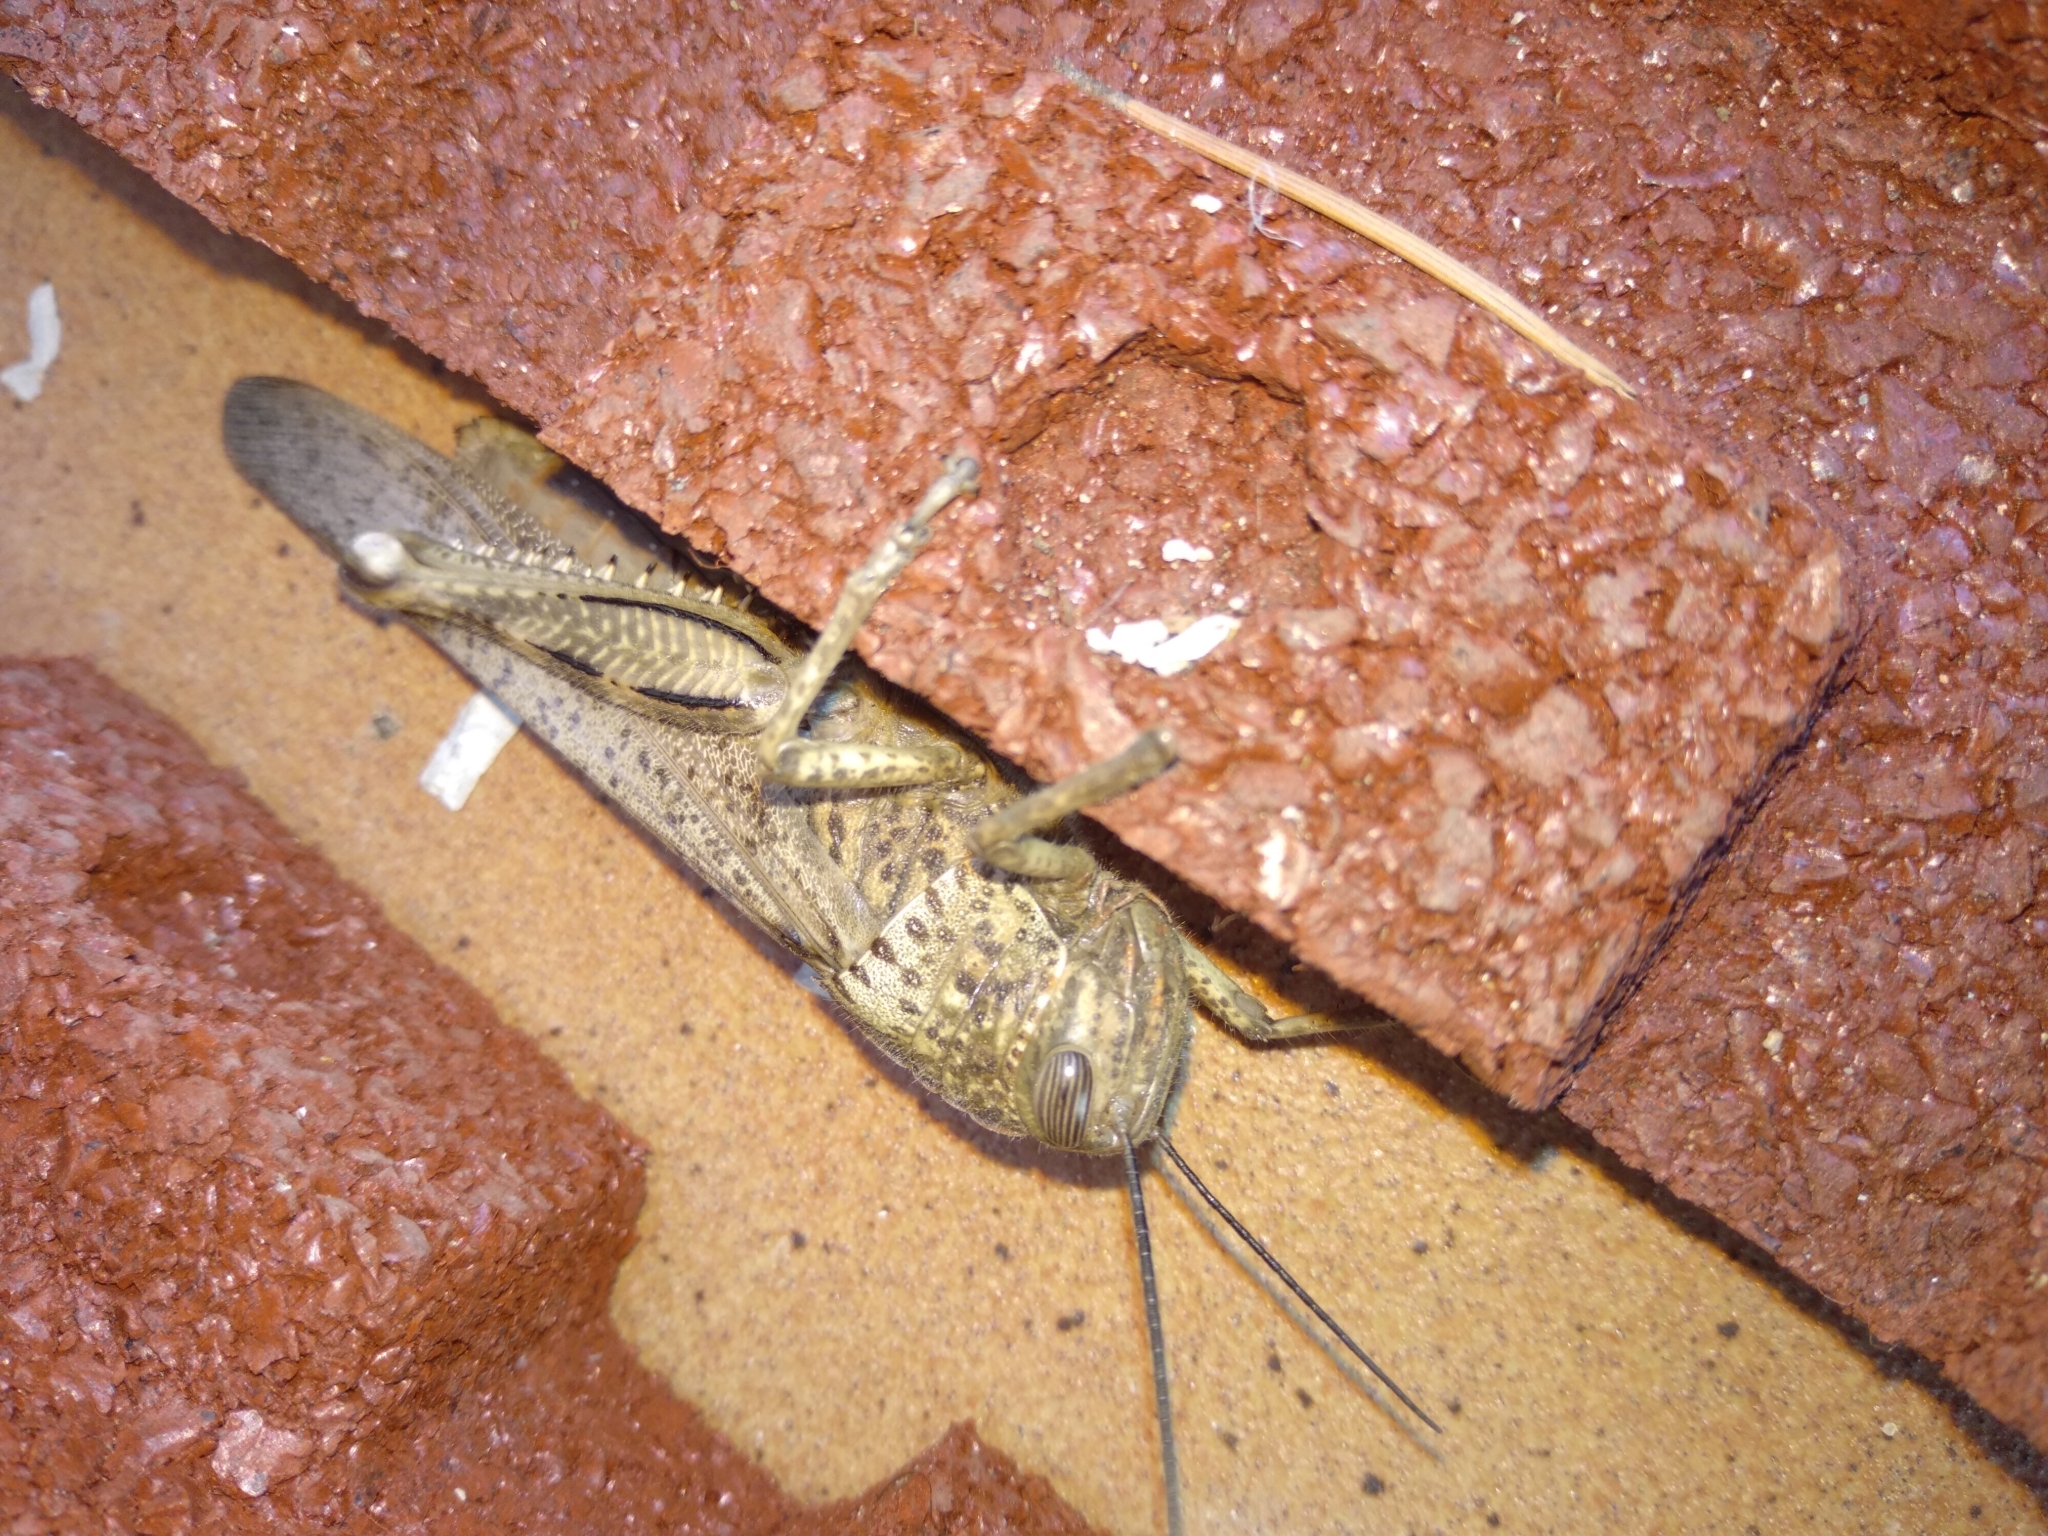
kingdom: Animalia
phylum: Arthropoda
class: Insecta
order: Orthoptera
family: Acrididae
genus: Anacridium
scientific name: Anacridium aegyptium
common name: Egyptian grasshopper
